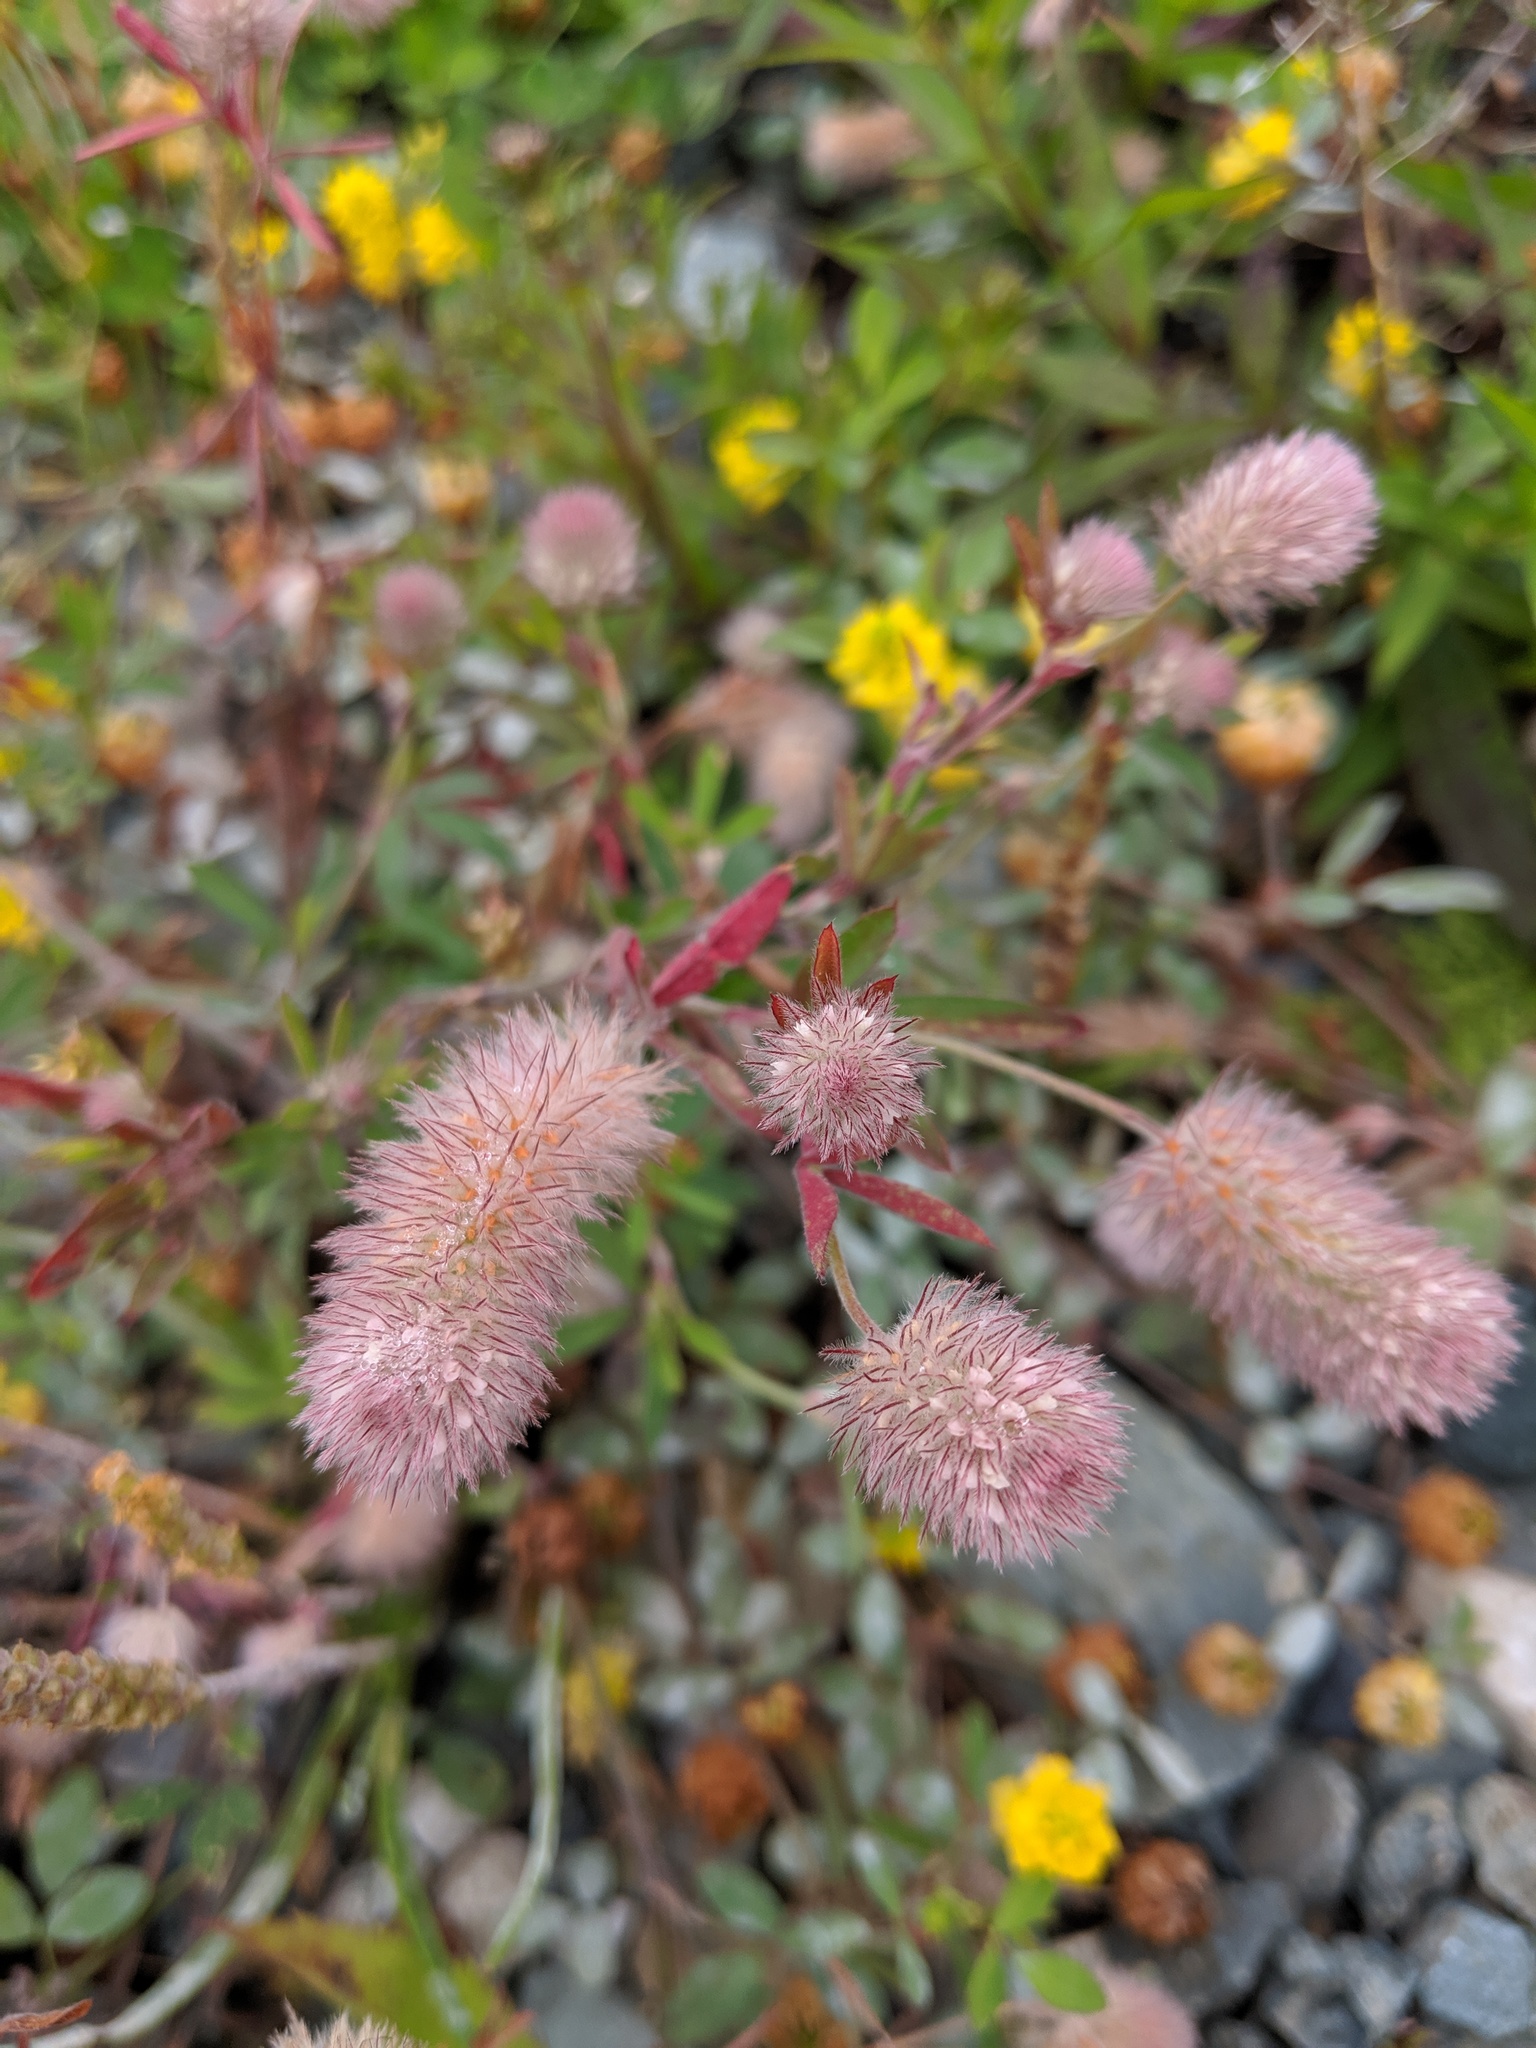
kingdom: Plantae
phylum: Tracheophyta
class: Magnoliopsida
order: Fabales
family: Fabaceae
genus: Trifolium
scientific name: Trifolium arvense
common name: Hare's-foot clover
